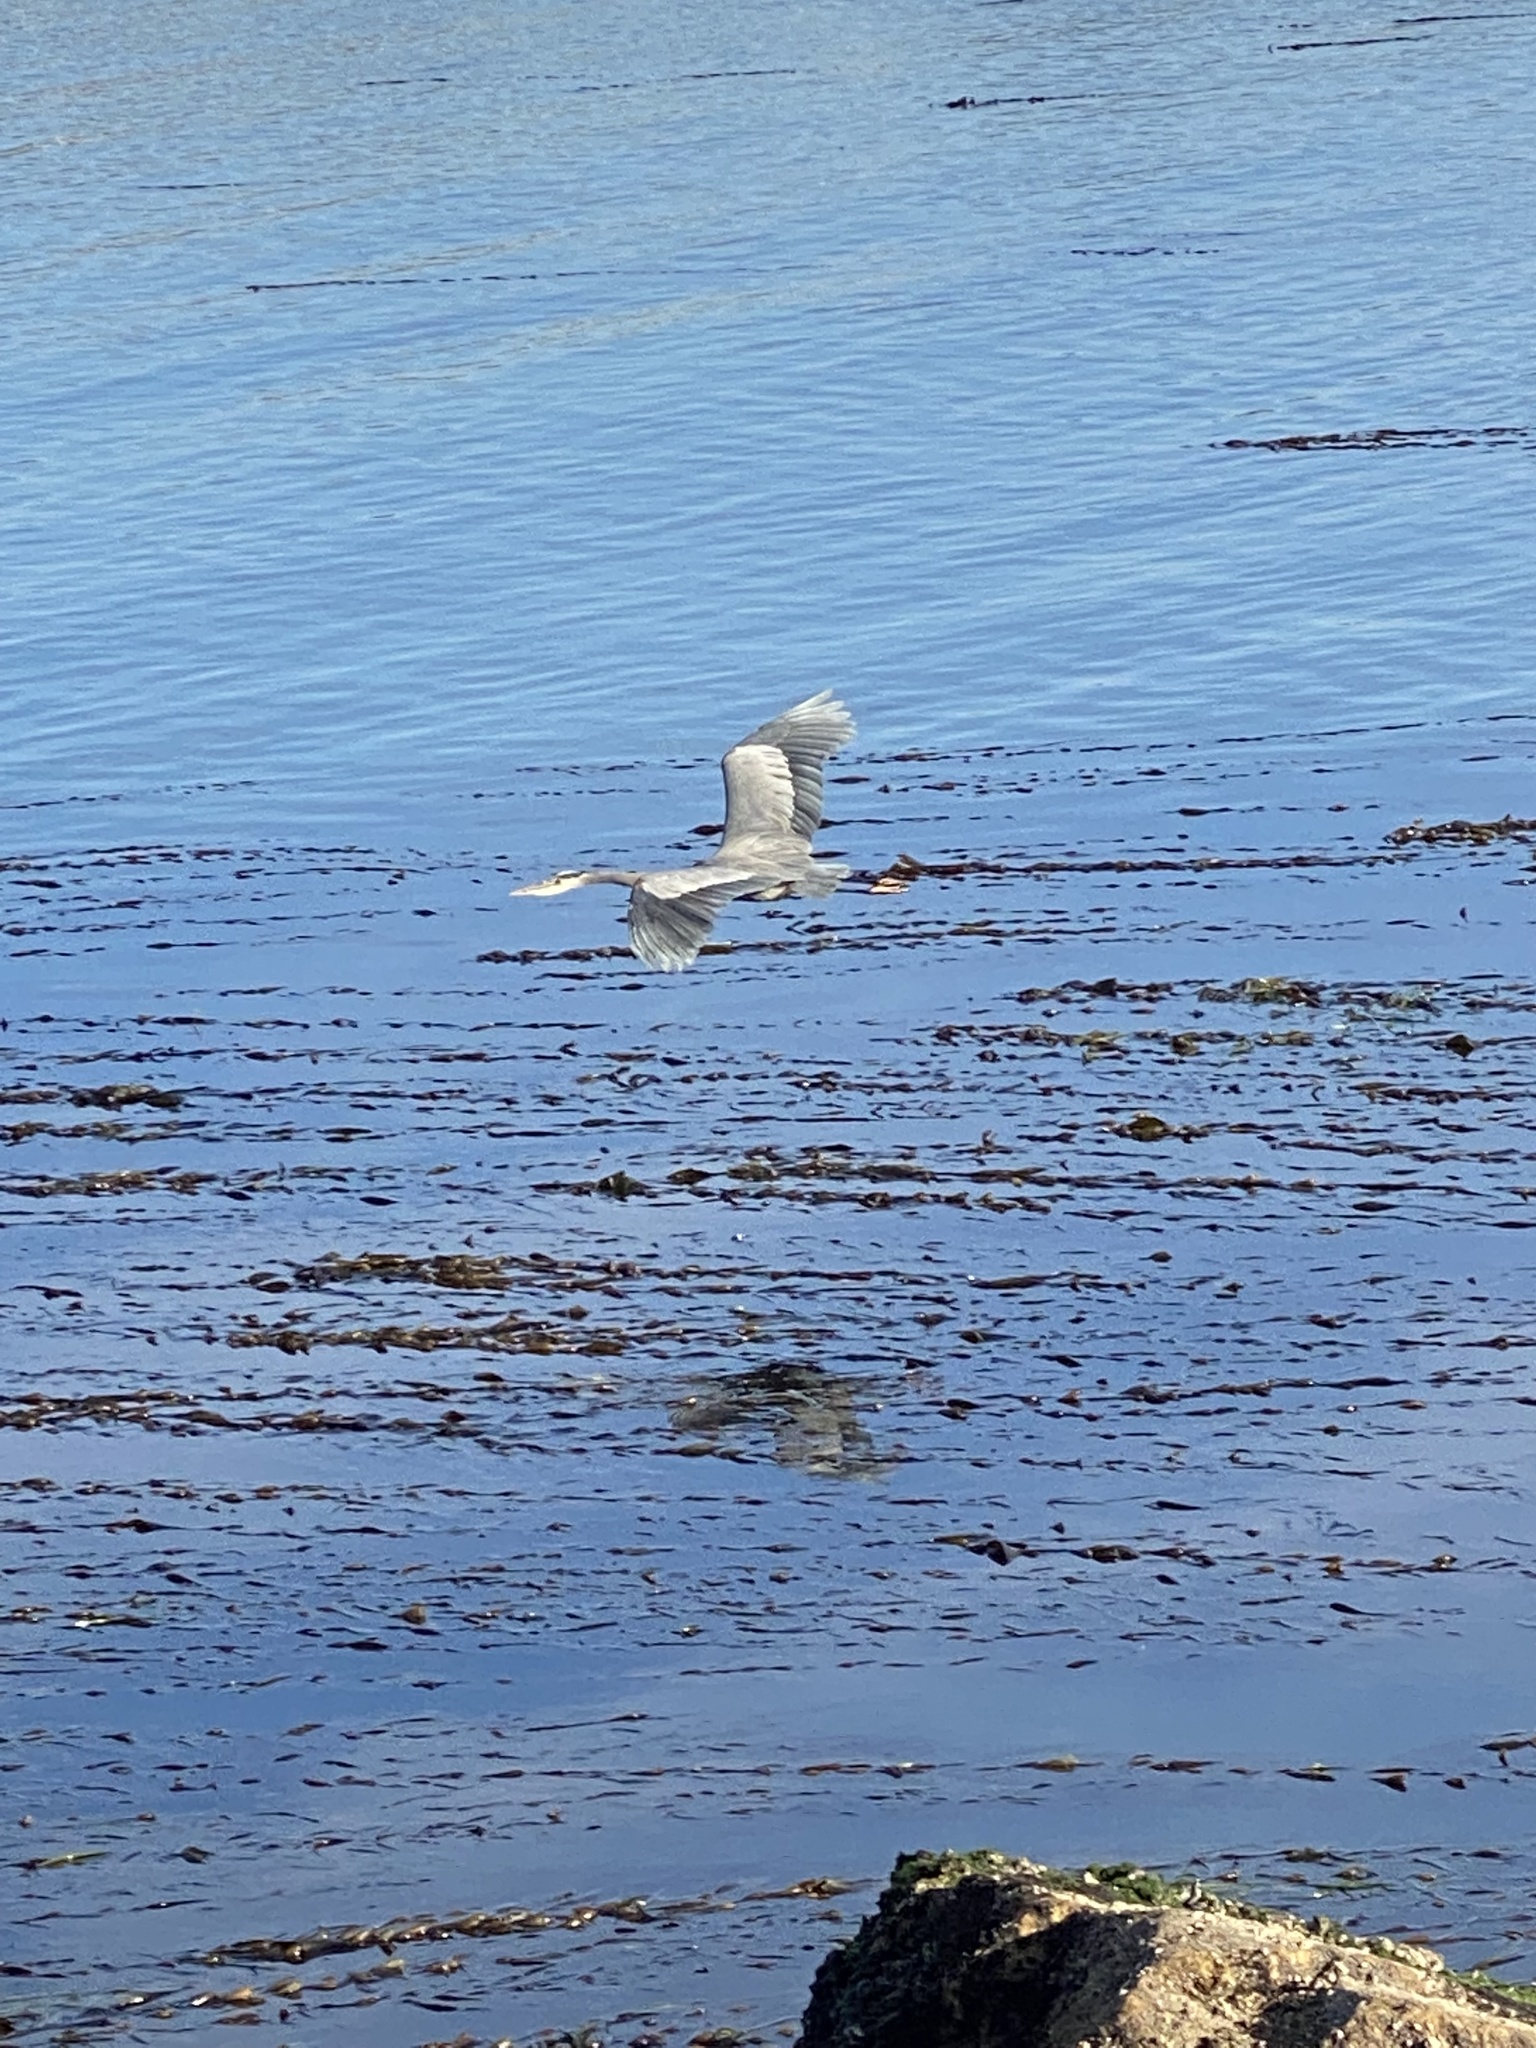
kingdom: Animalia
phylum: Chordata
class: Aves
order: Pelecaniformes
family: Ardeidae
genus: Ardea
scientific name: Ardea herodias
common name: Great blue heron
